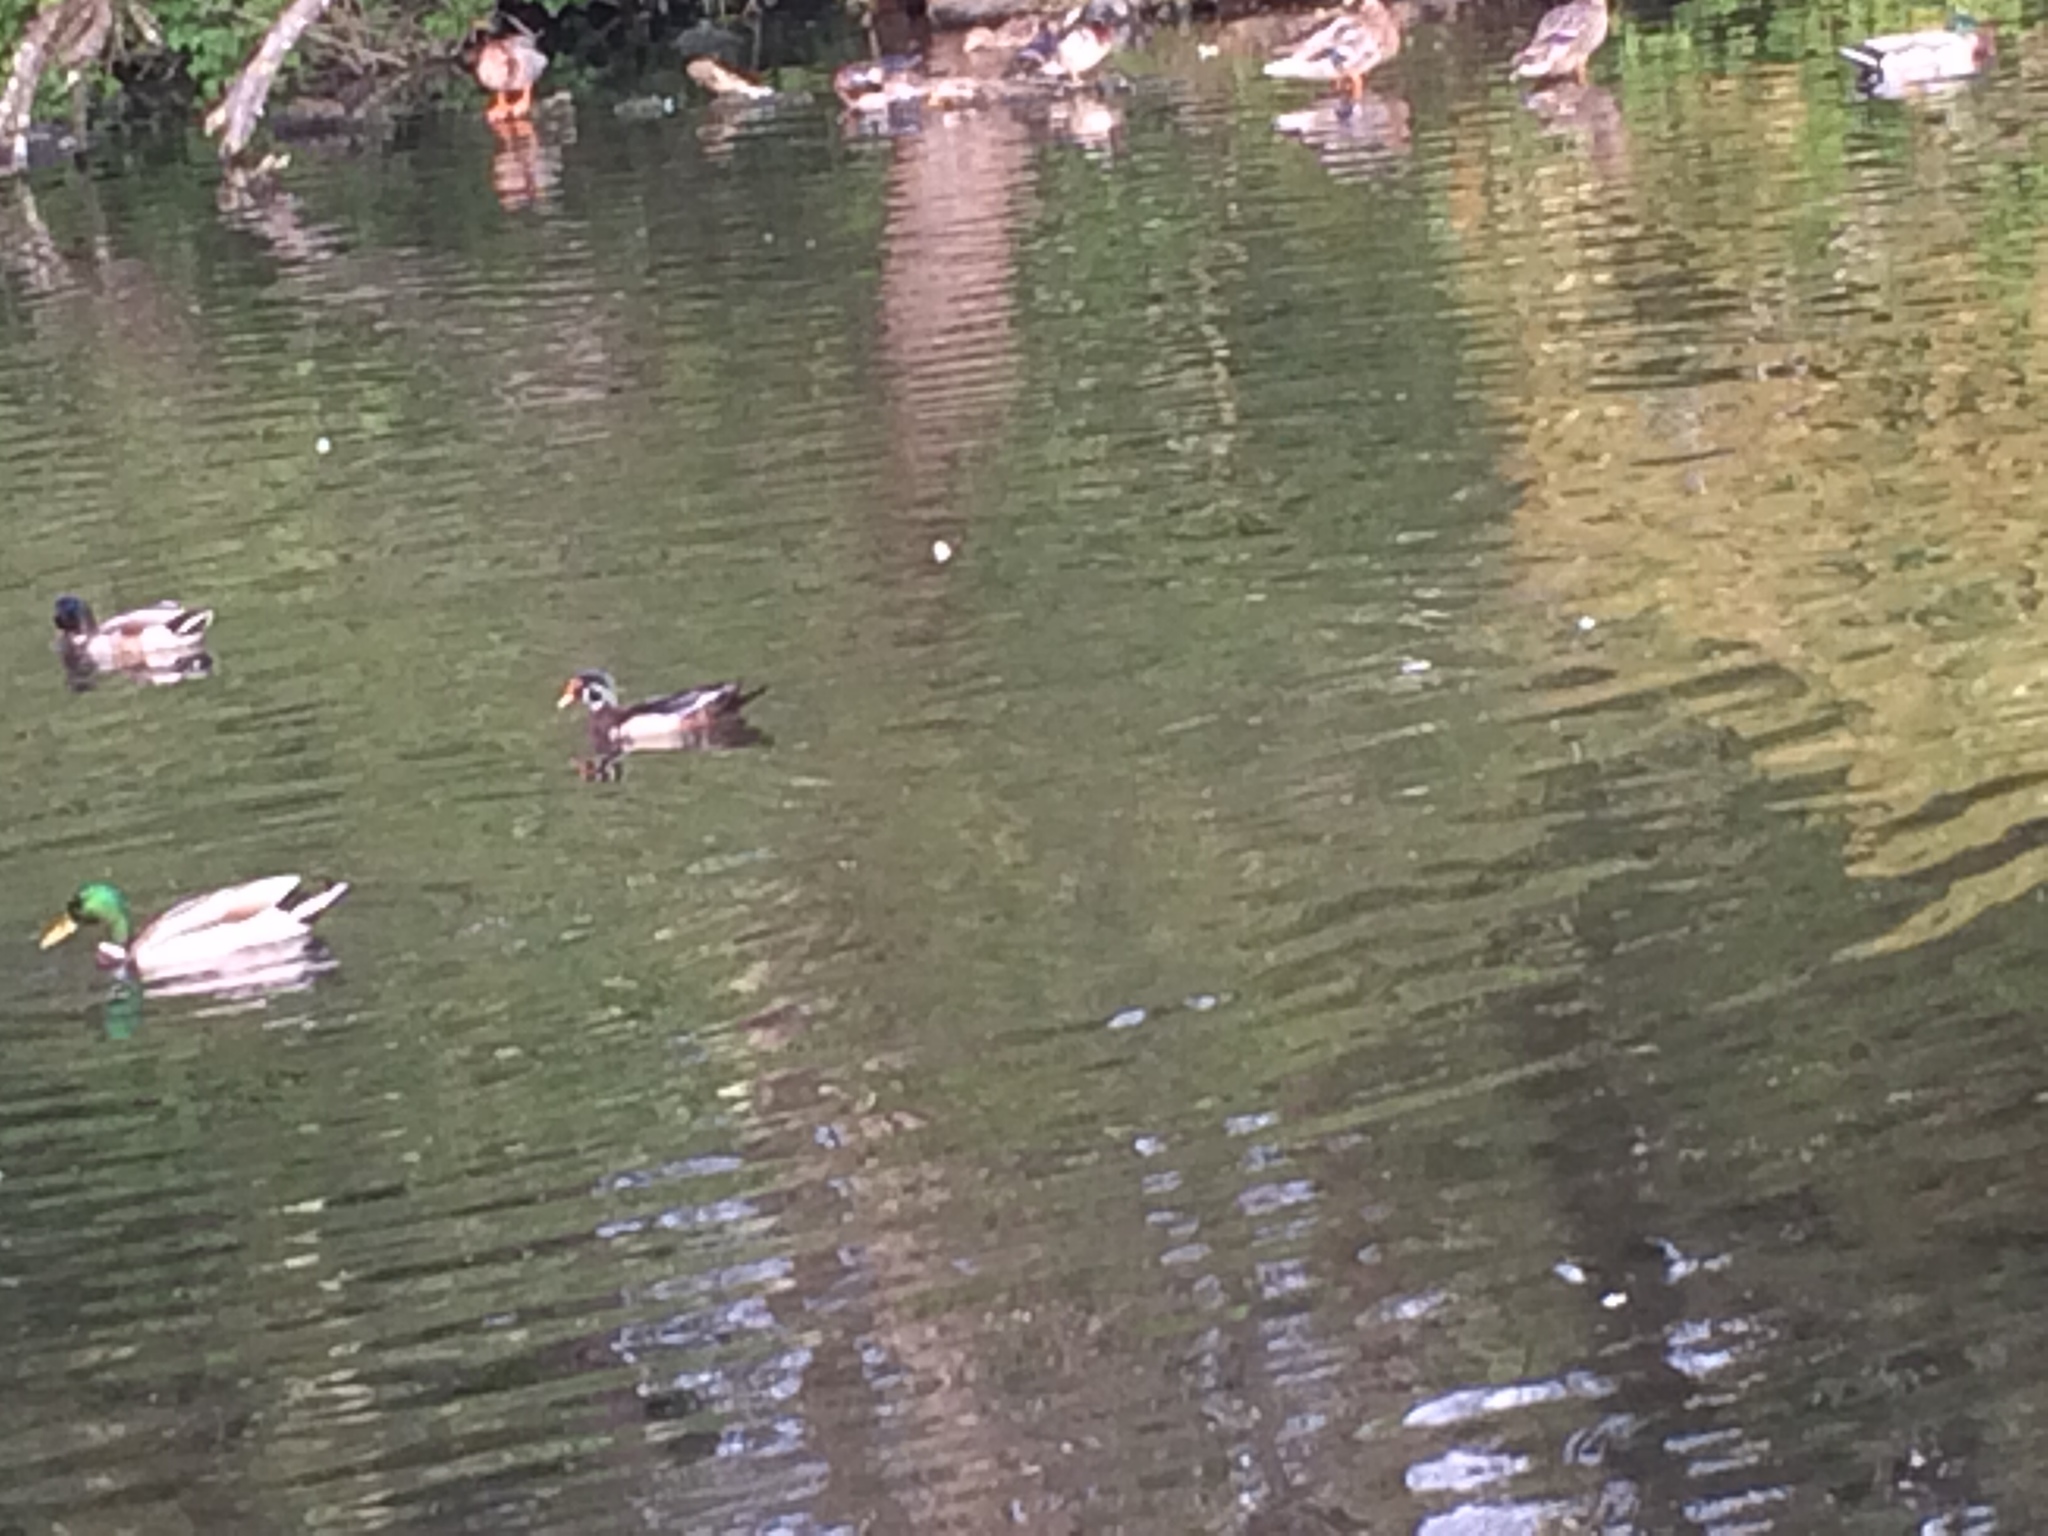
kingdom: Animalia
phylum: Chordata
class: Aves
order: Anseriformes
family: Anatidae
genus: Anas
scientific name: Anas platyrhynchos
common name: Mallard
